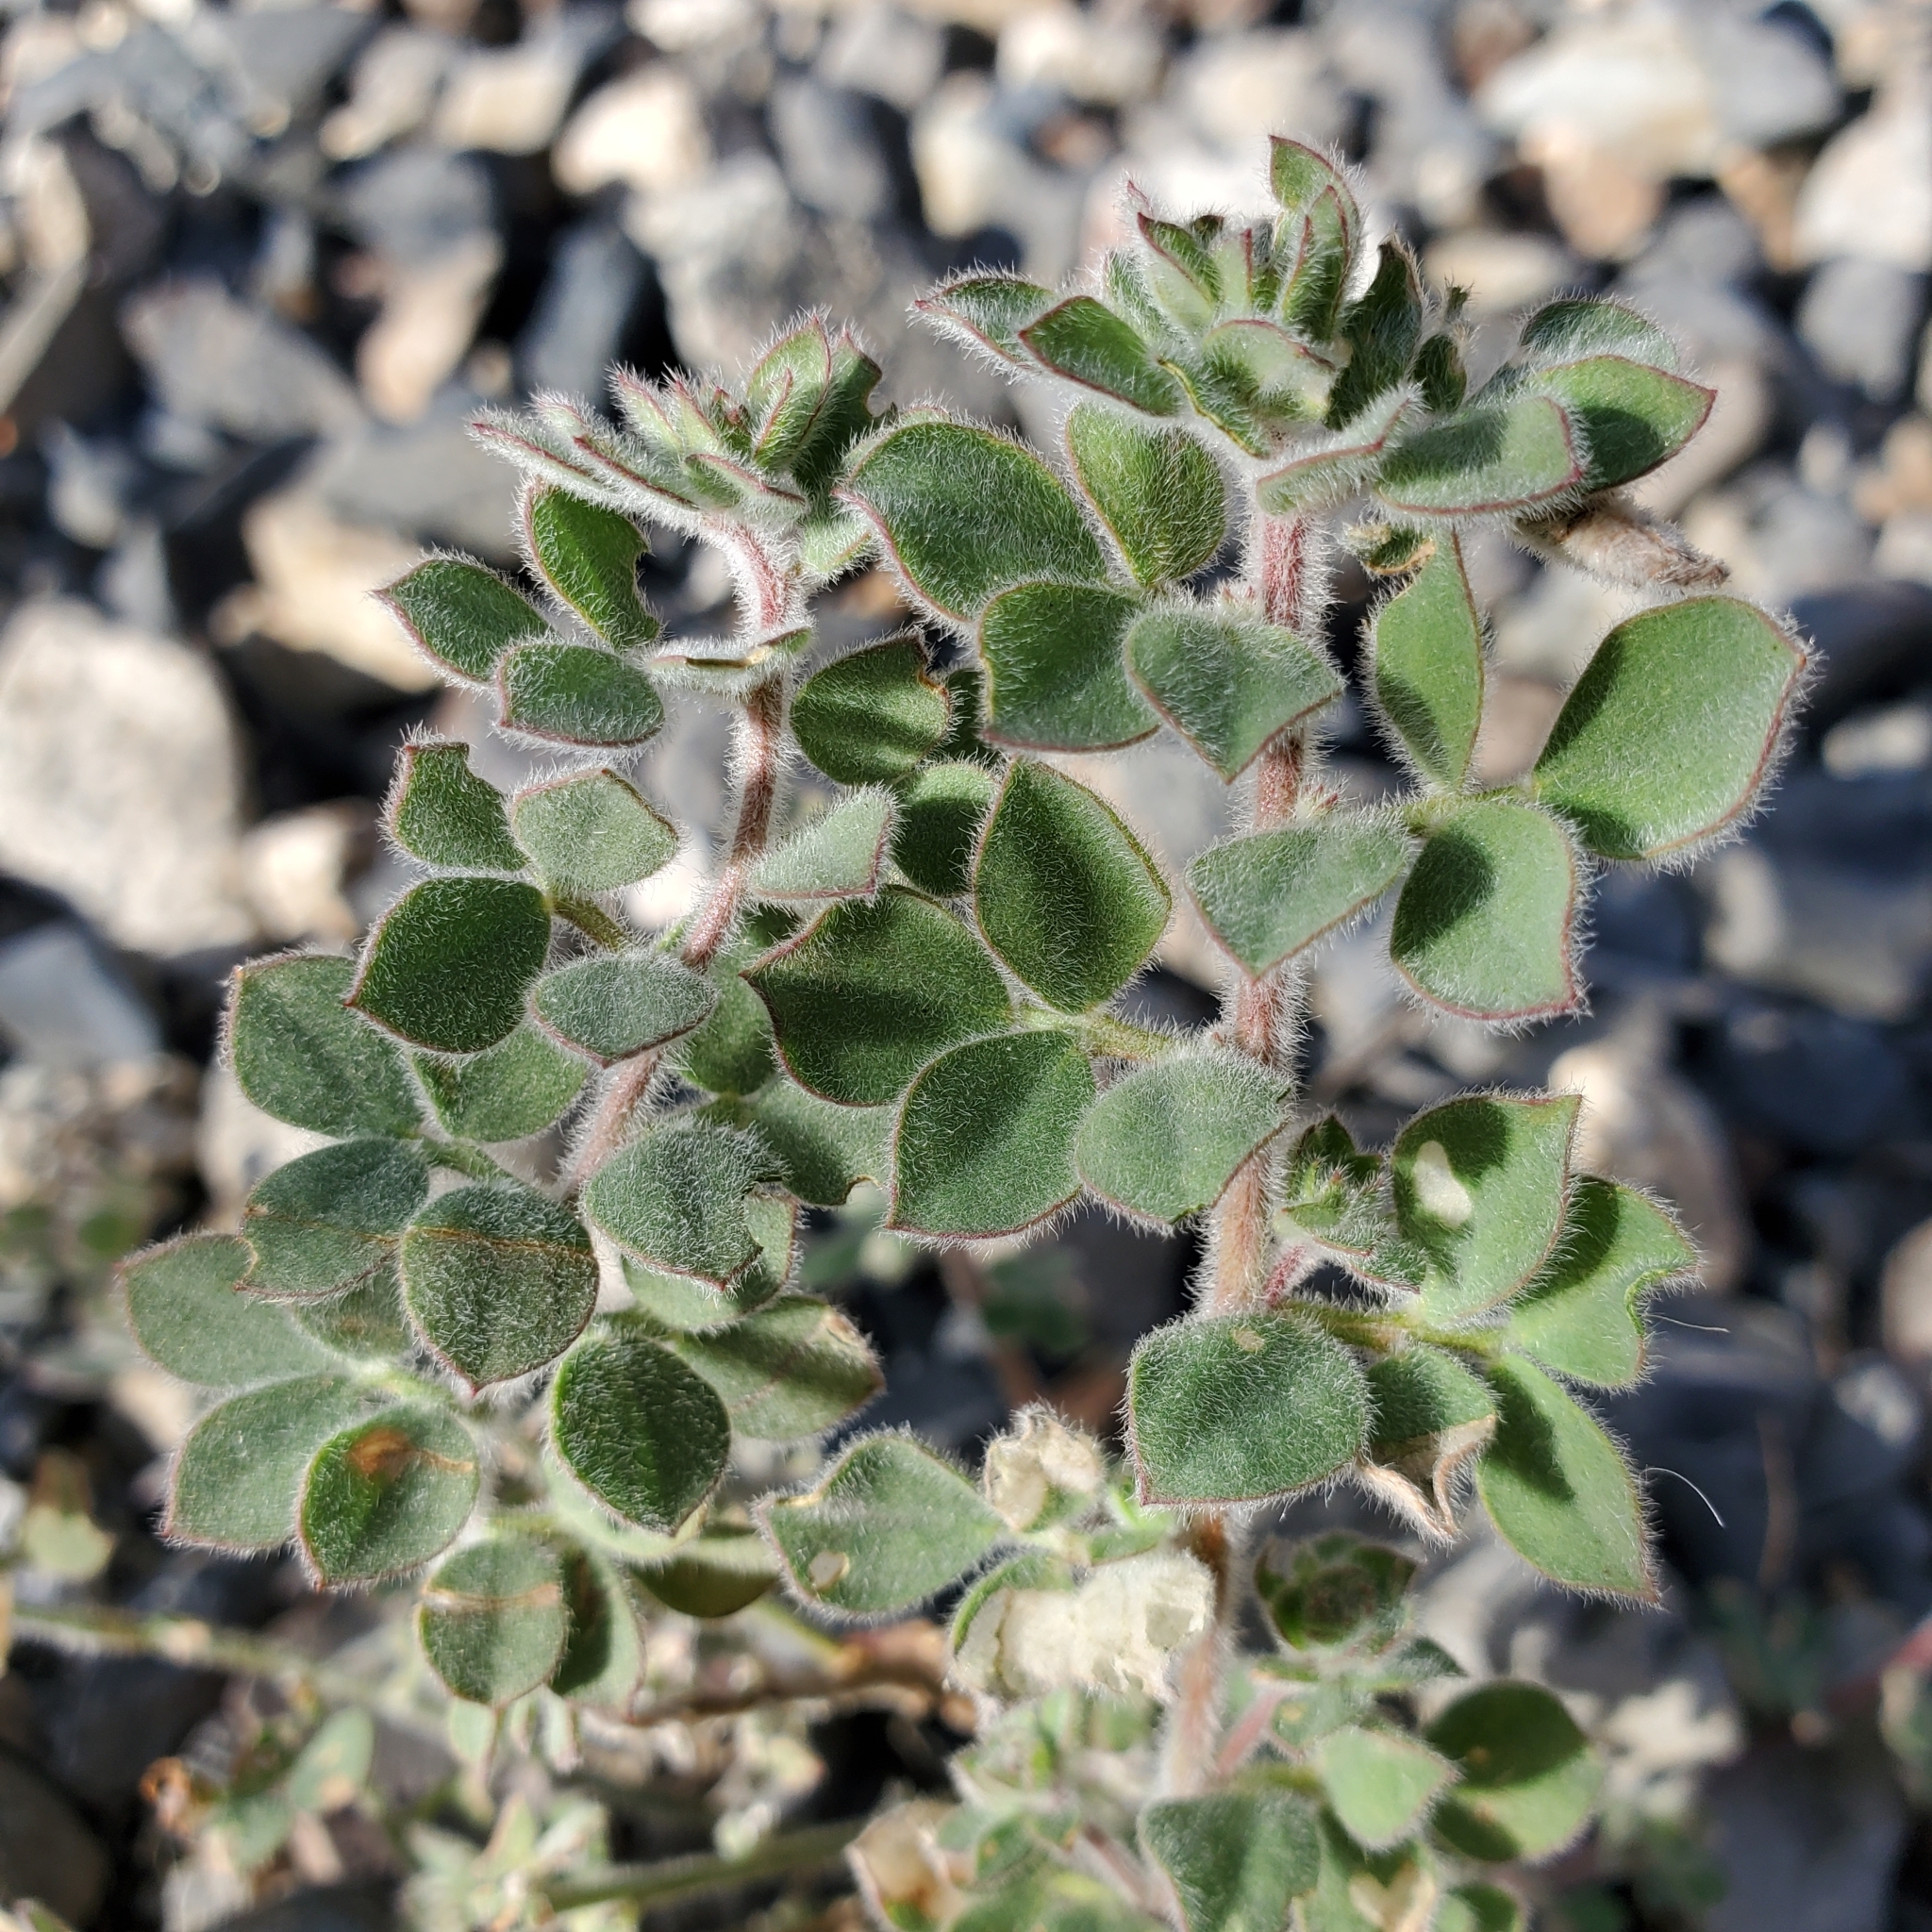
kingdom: Plantae
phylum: Tracheophyta
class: Magnoliopsida
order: Fabales
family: Fabaceae
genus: Acmispon
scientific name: Acmispon tomentosus
